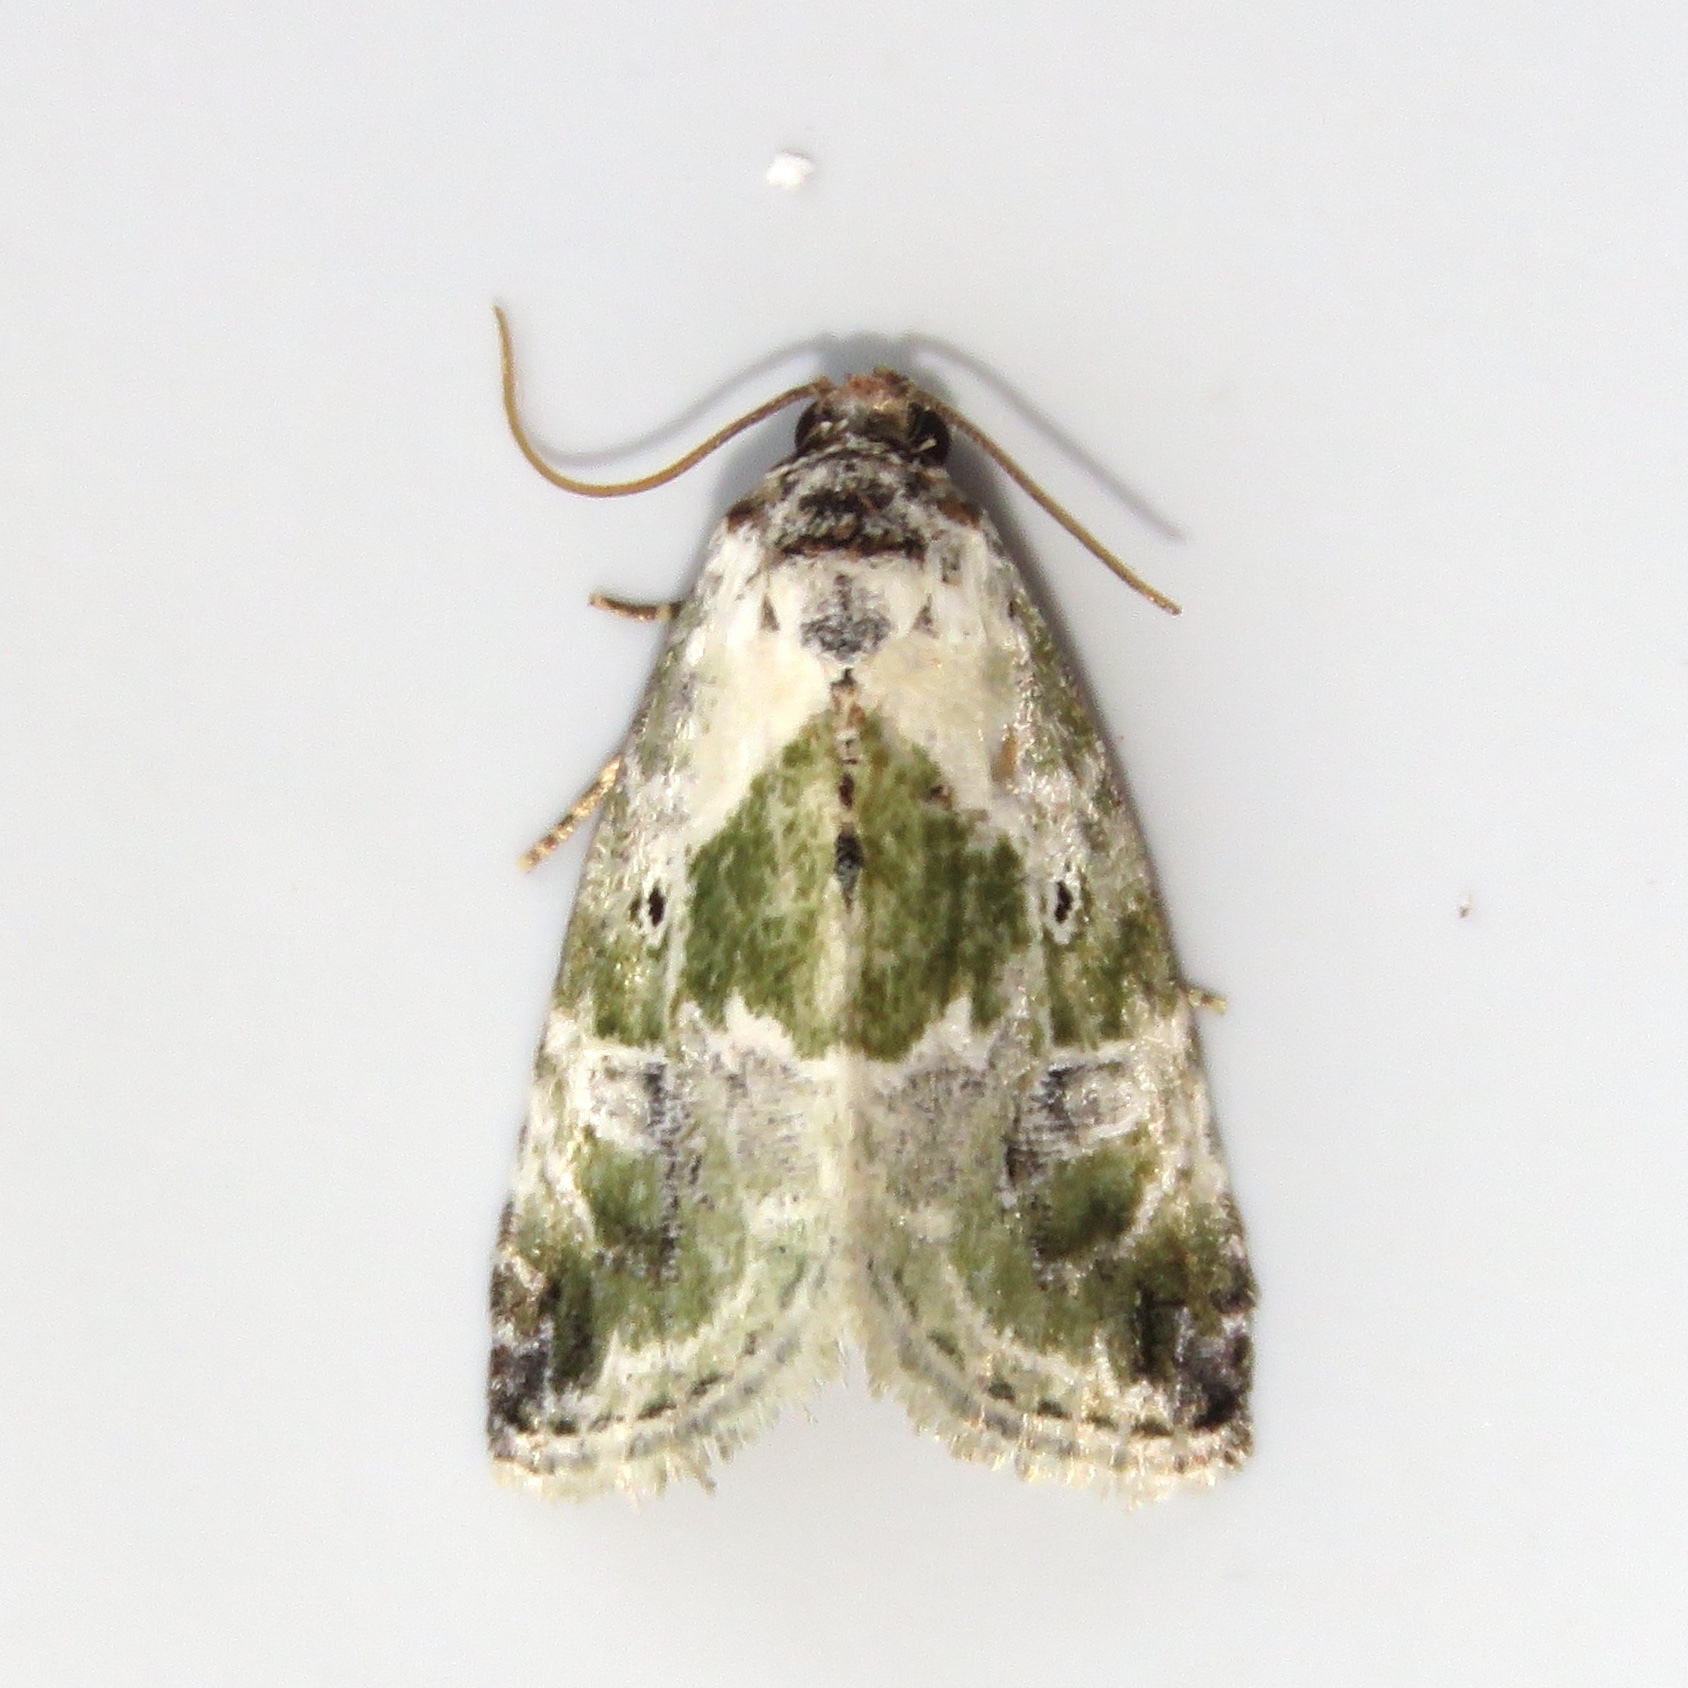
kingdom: Animalia
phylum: Arthropoda
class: Insecta
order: Lepidoptera
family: Noctuidae
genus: Maliattha
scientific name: Maliattha synochitis
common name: Black-dotted glyph
